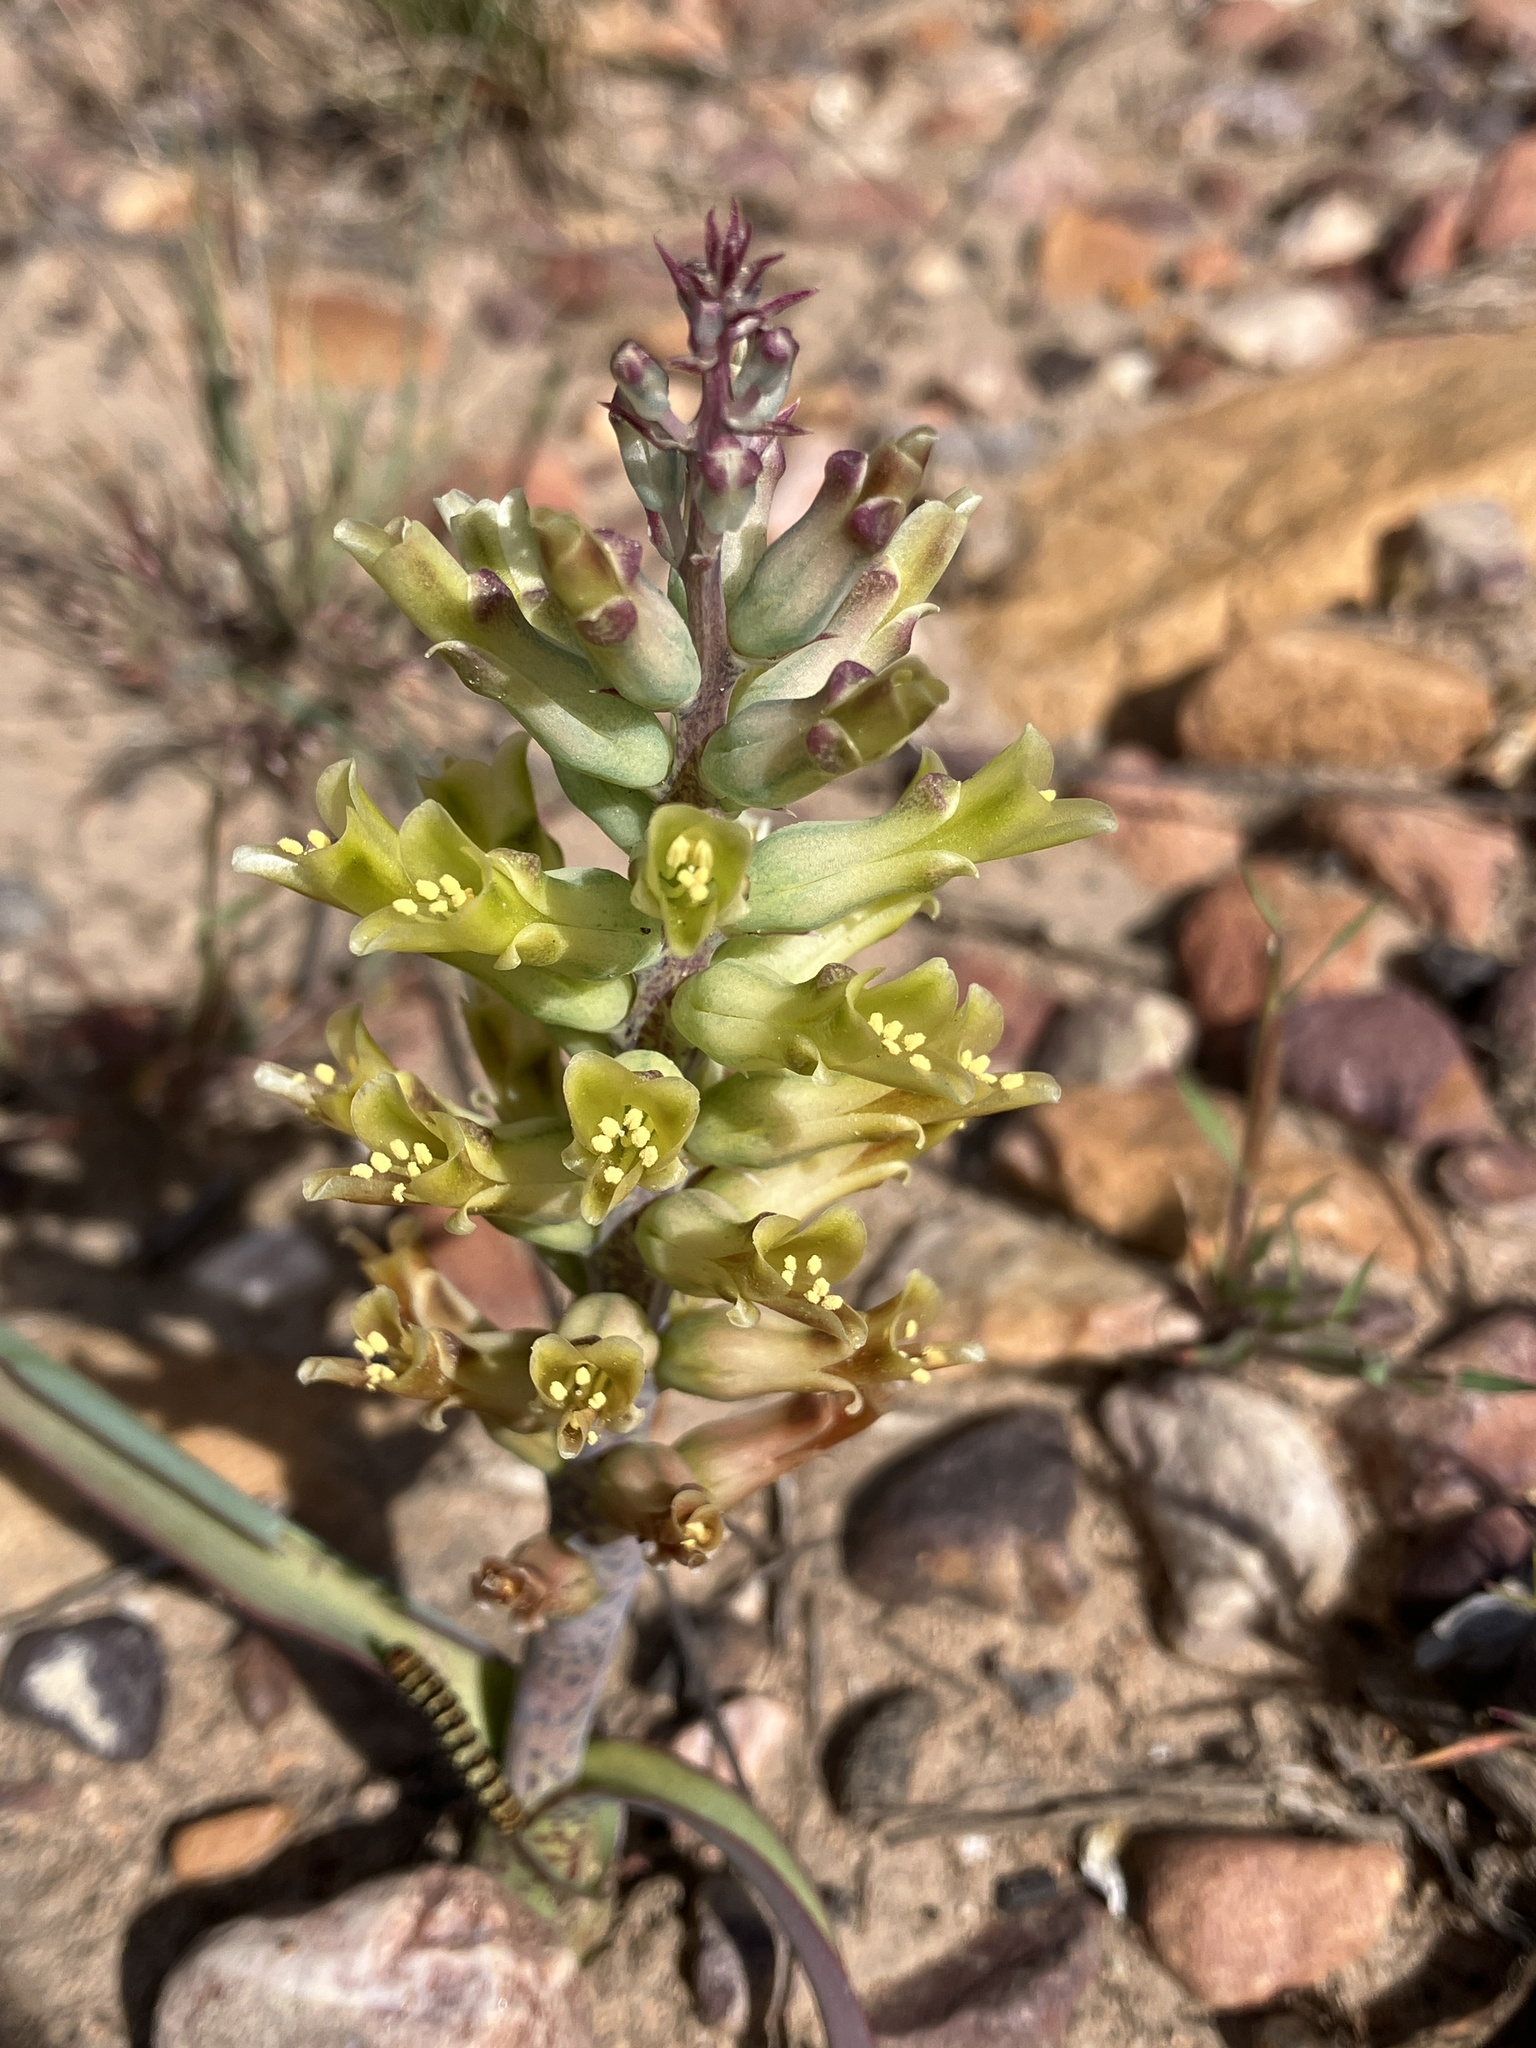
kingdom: Plantae
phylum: Tracheophyta
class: Liliopsida
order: Asparagales
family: Asparagaceae
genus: Lachenalia
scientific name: Lachenalia orchioides
